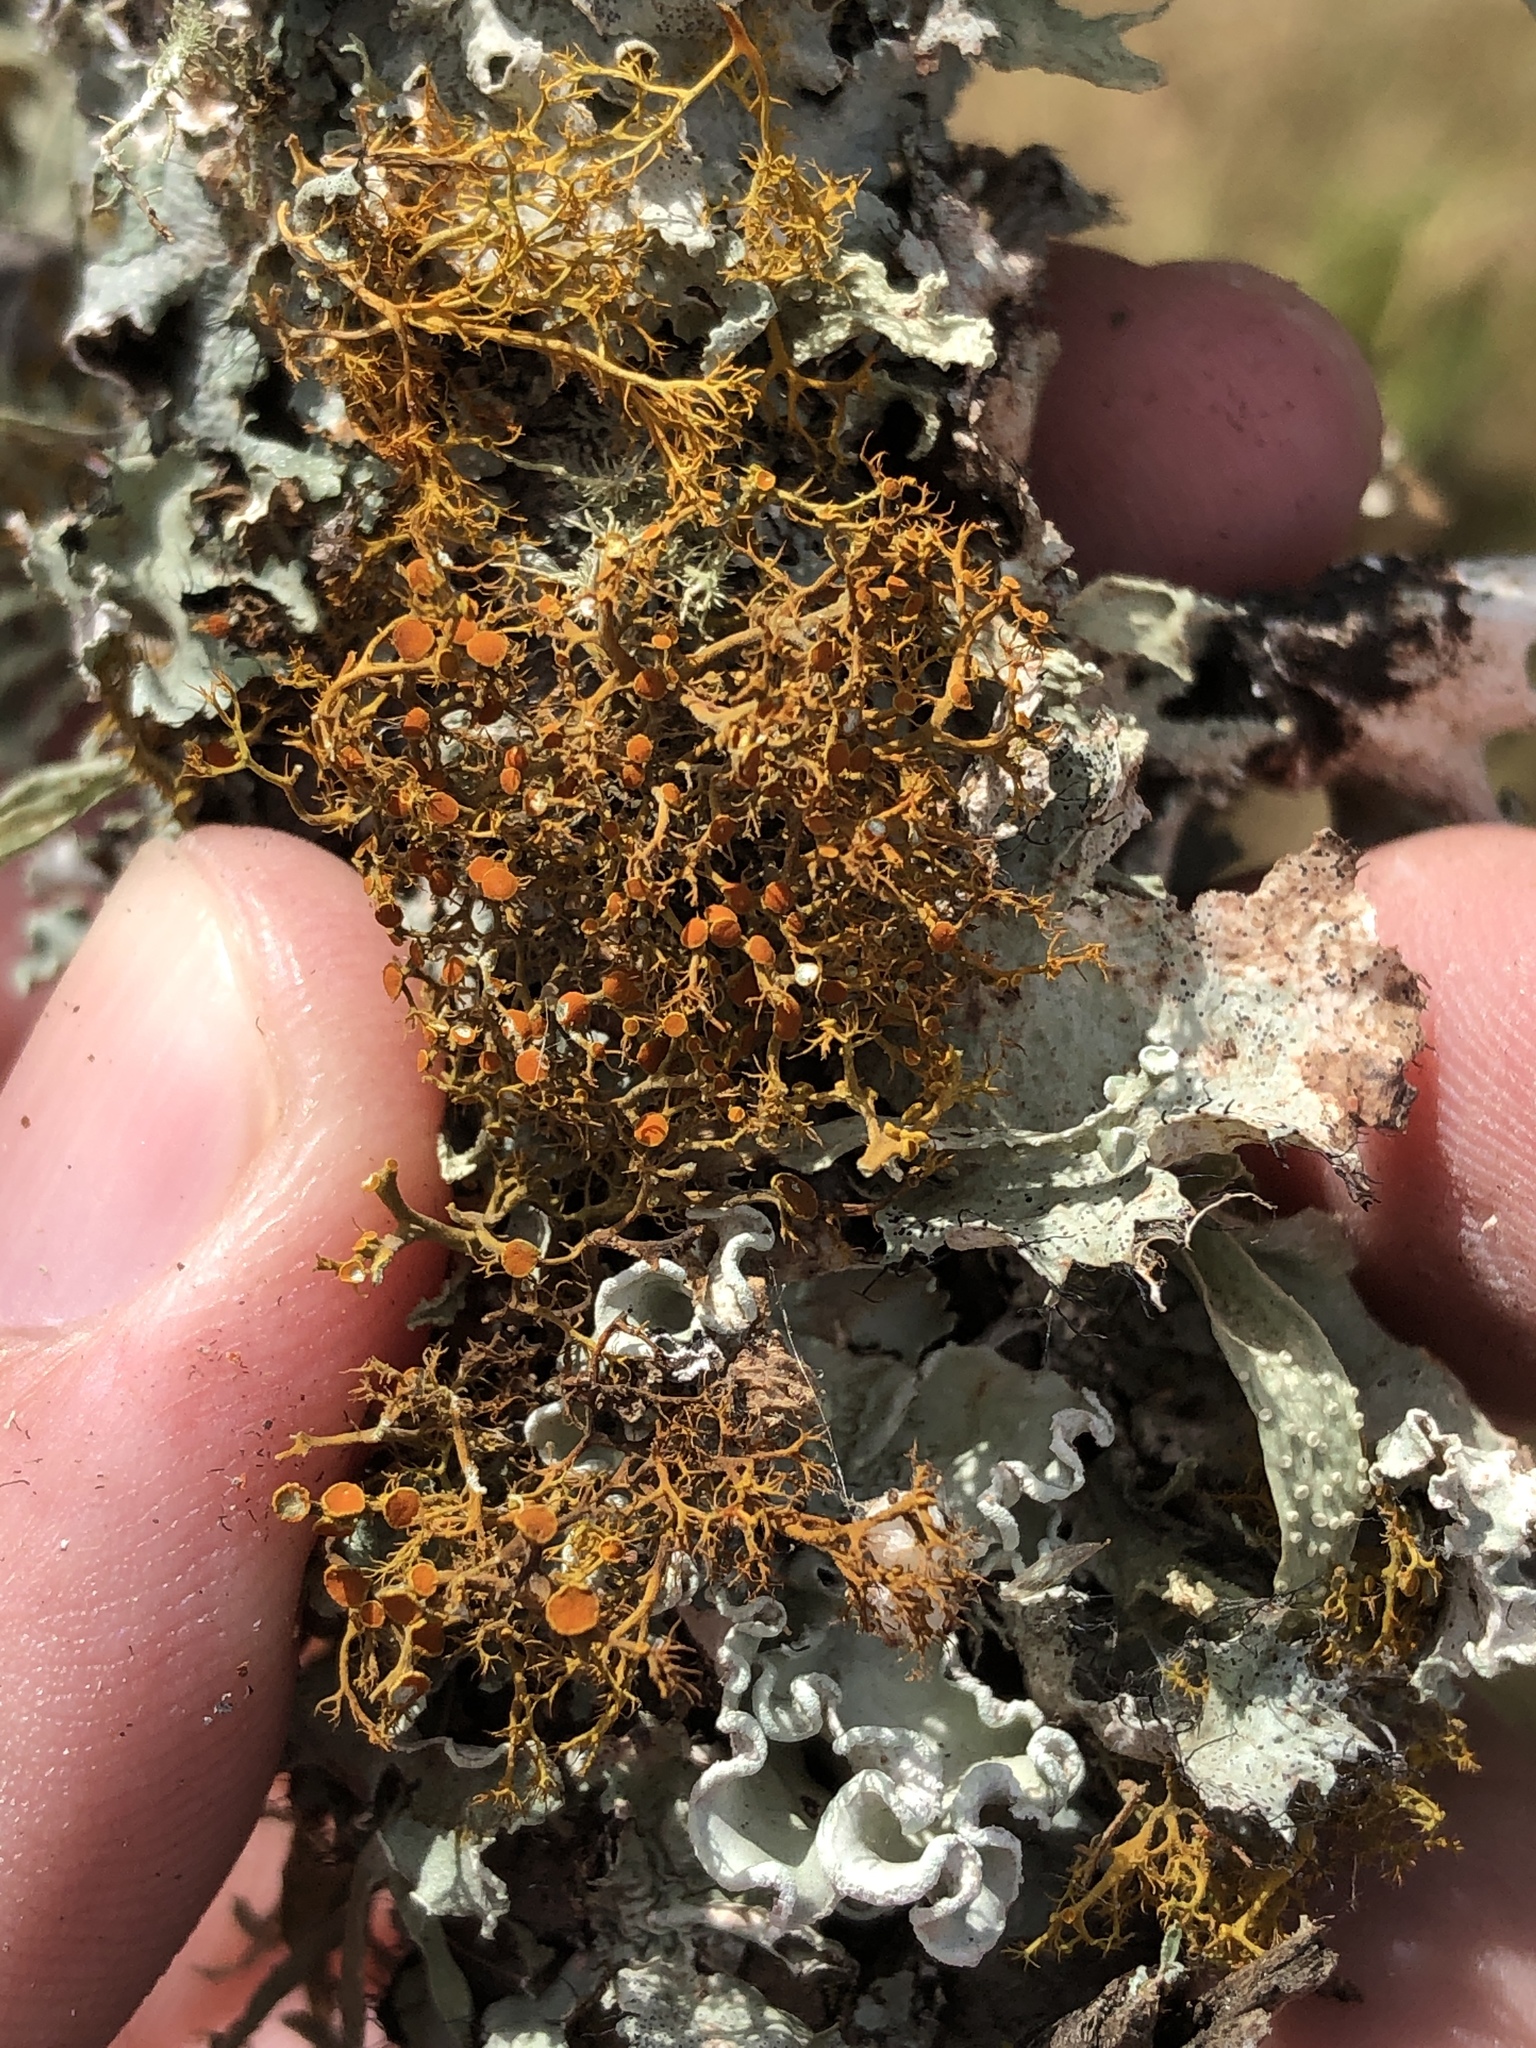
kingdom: Fungi
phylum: Ascomycota
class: Lecanoromycetes
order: Teloschistales
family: Teloschistaceae
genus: Teloschistes
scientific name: Teloschistes exilis
